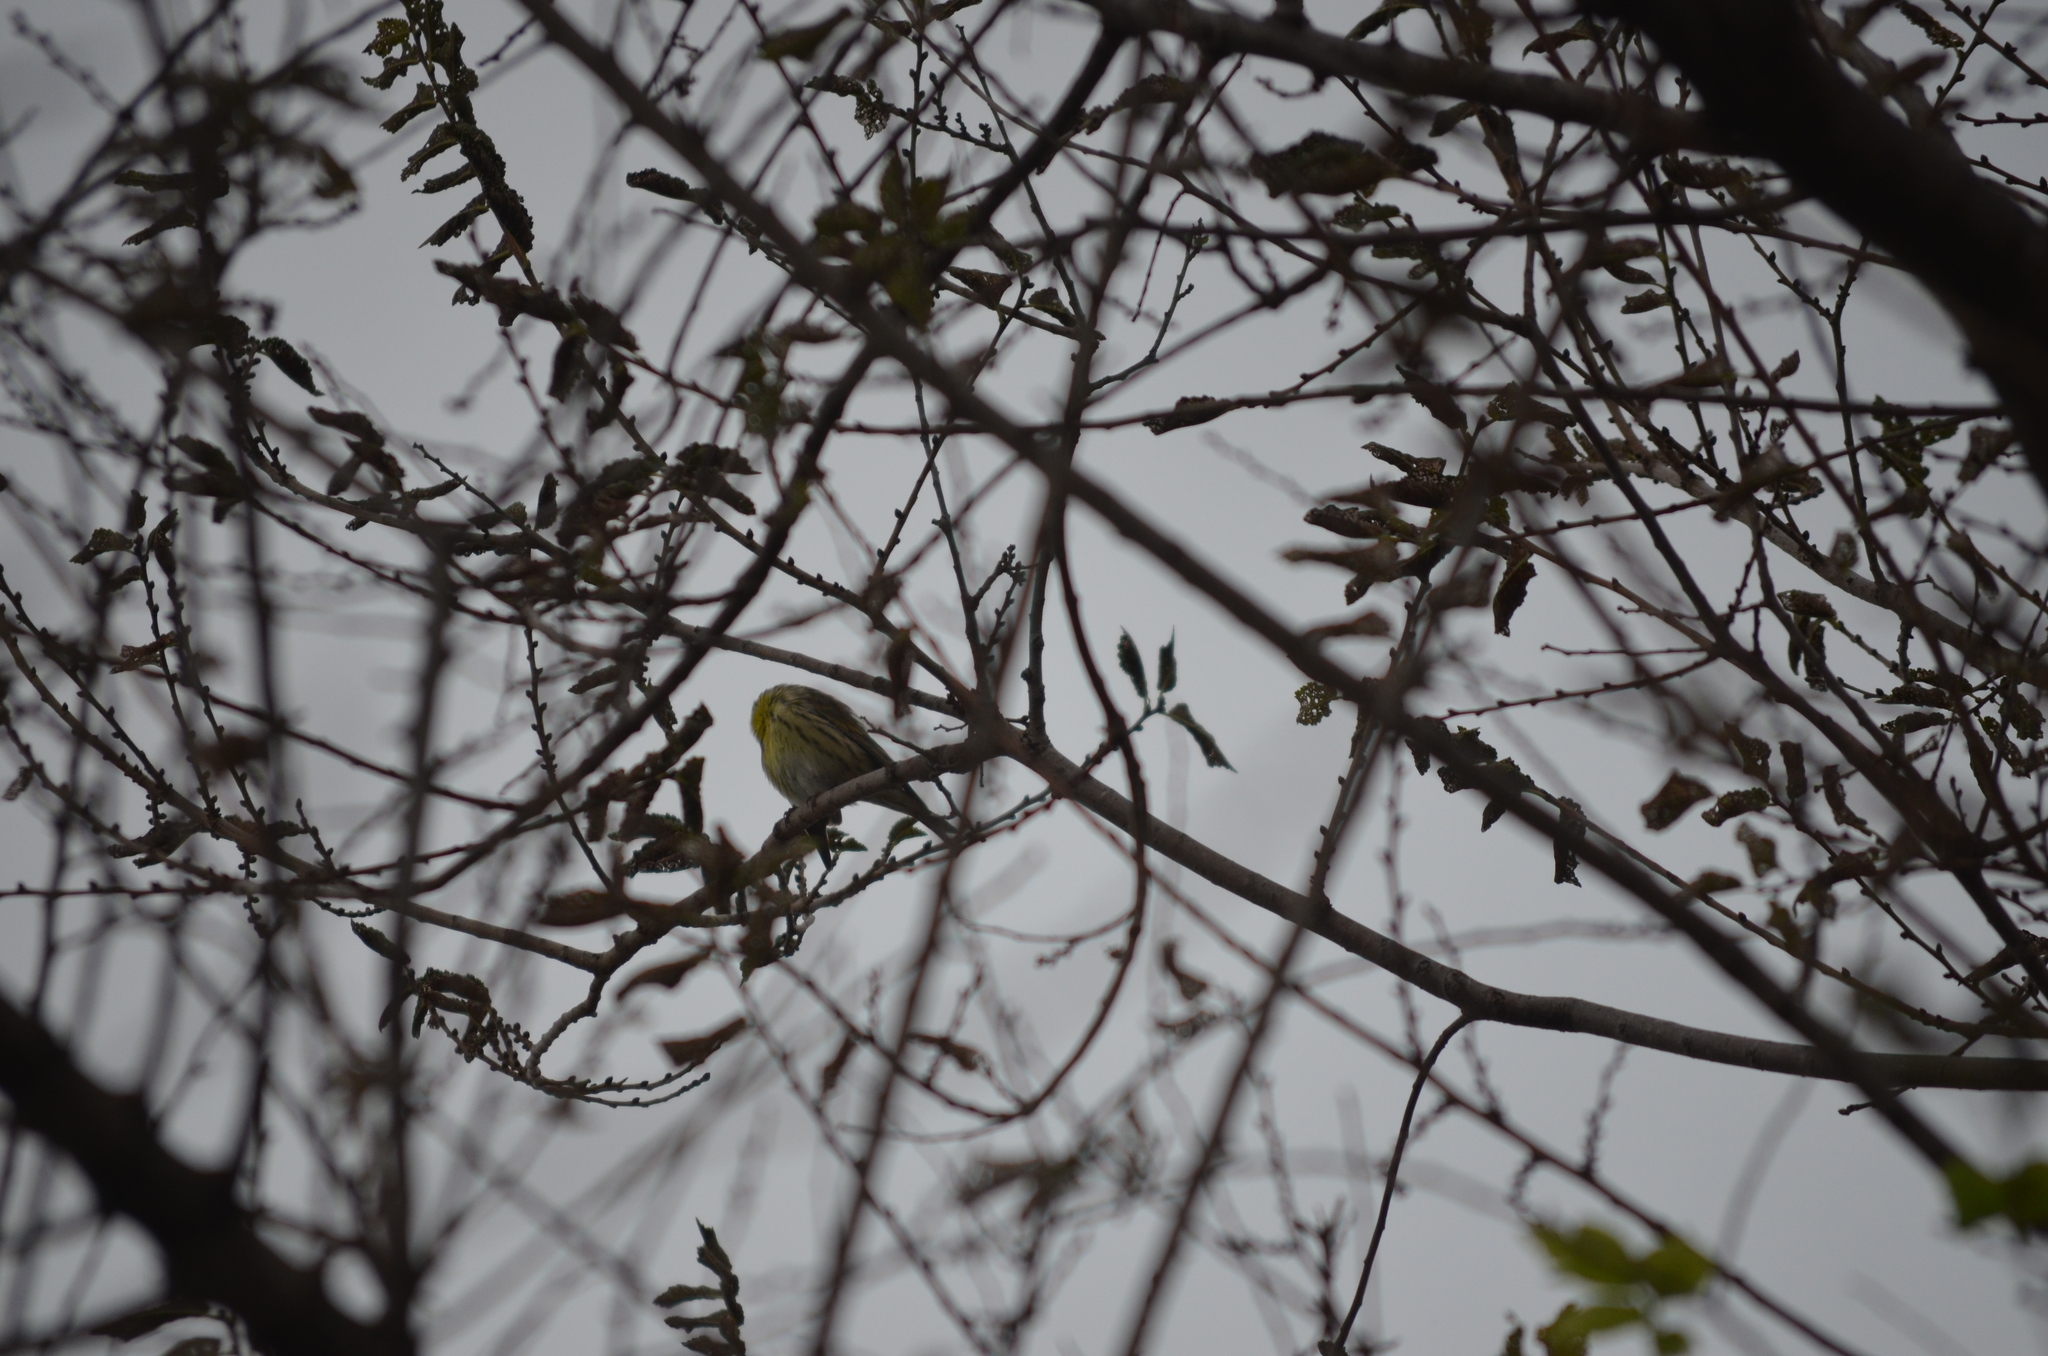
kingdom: Animalia
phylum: Chordata
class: Aves
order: Passeriformes
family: Fringillidae
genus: Serinus
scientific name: Serinus serinus
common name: European serin
